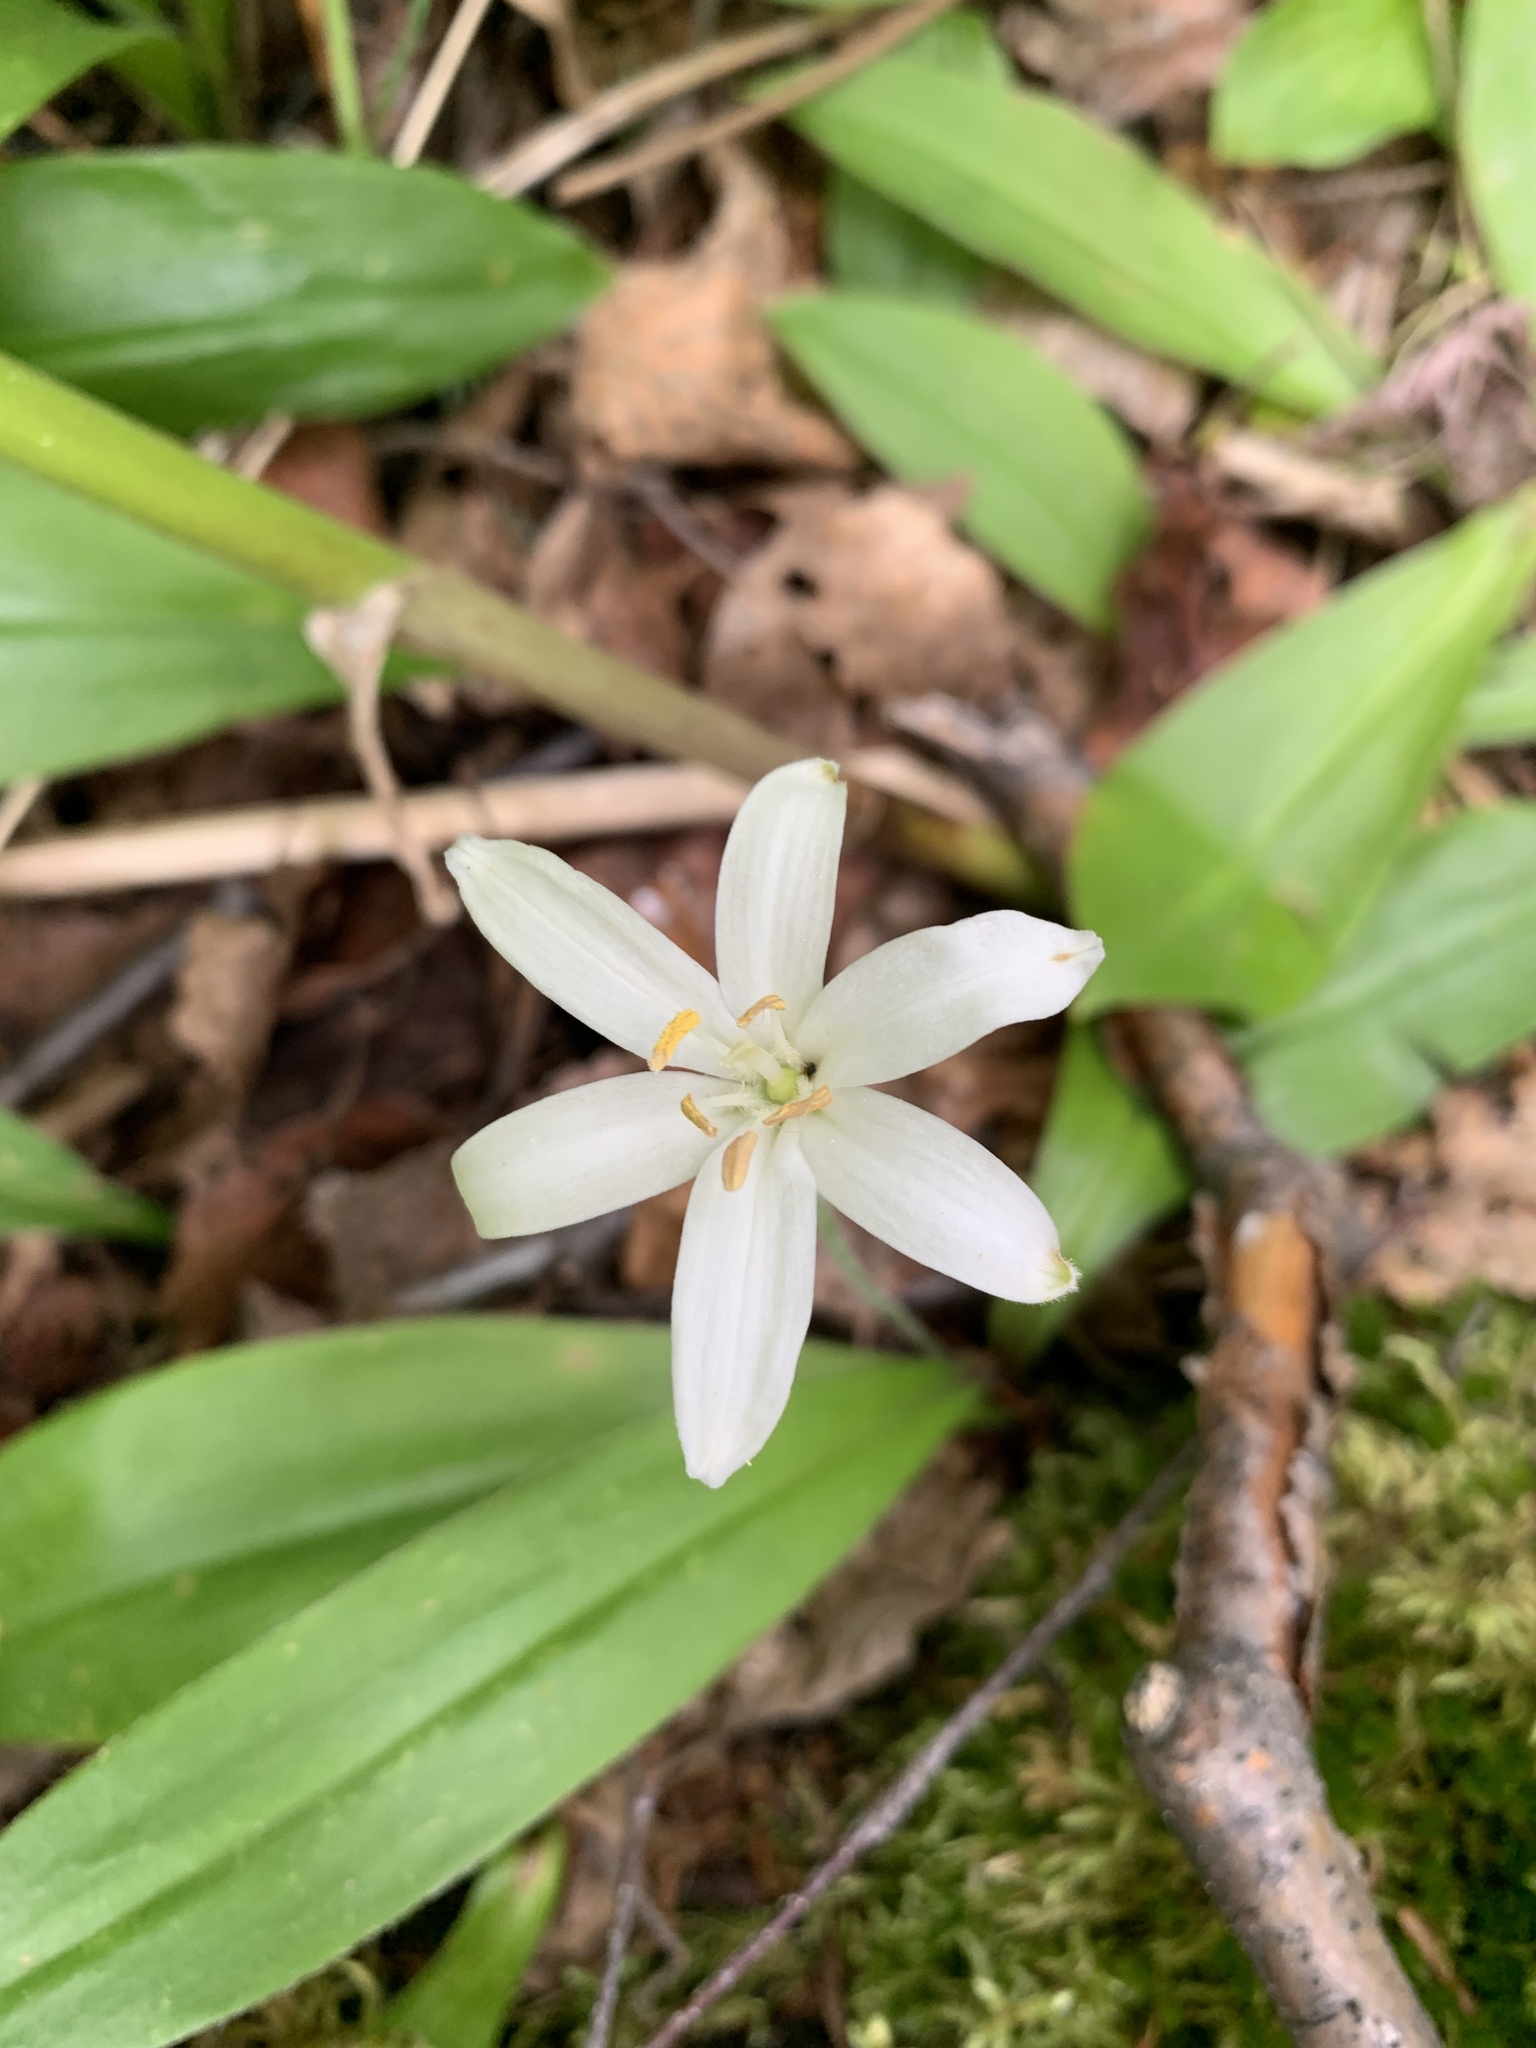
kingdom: Plantae
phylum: Tracheophyta
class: Liliopsida
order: Liliales
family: Liliaceae
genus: Clintonia
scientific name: Clintonia uniflora
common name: Queen's cup
